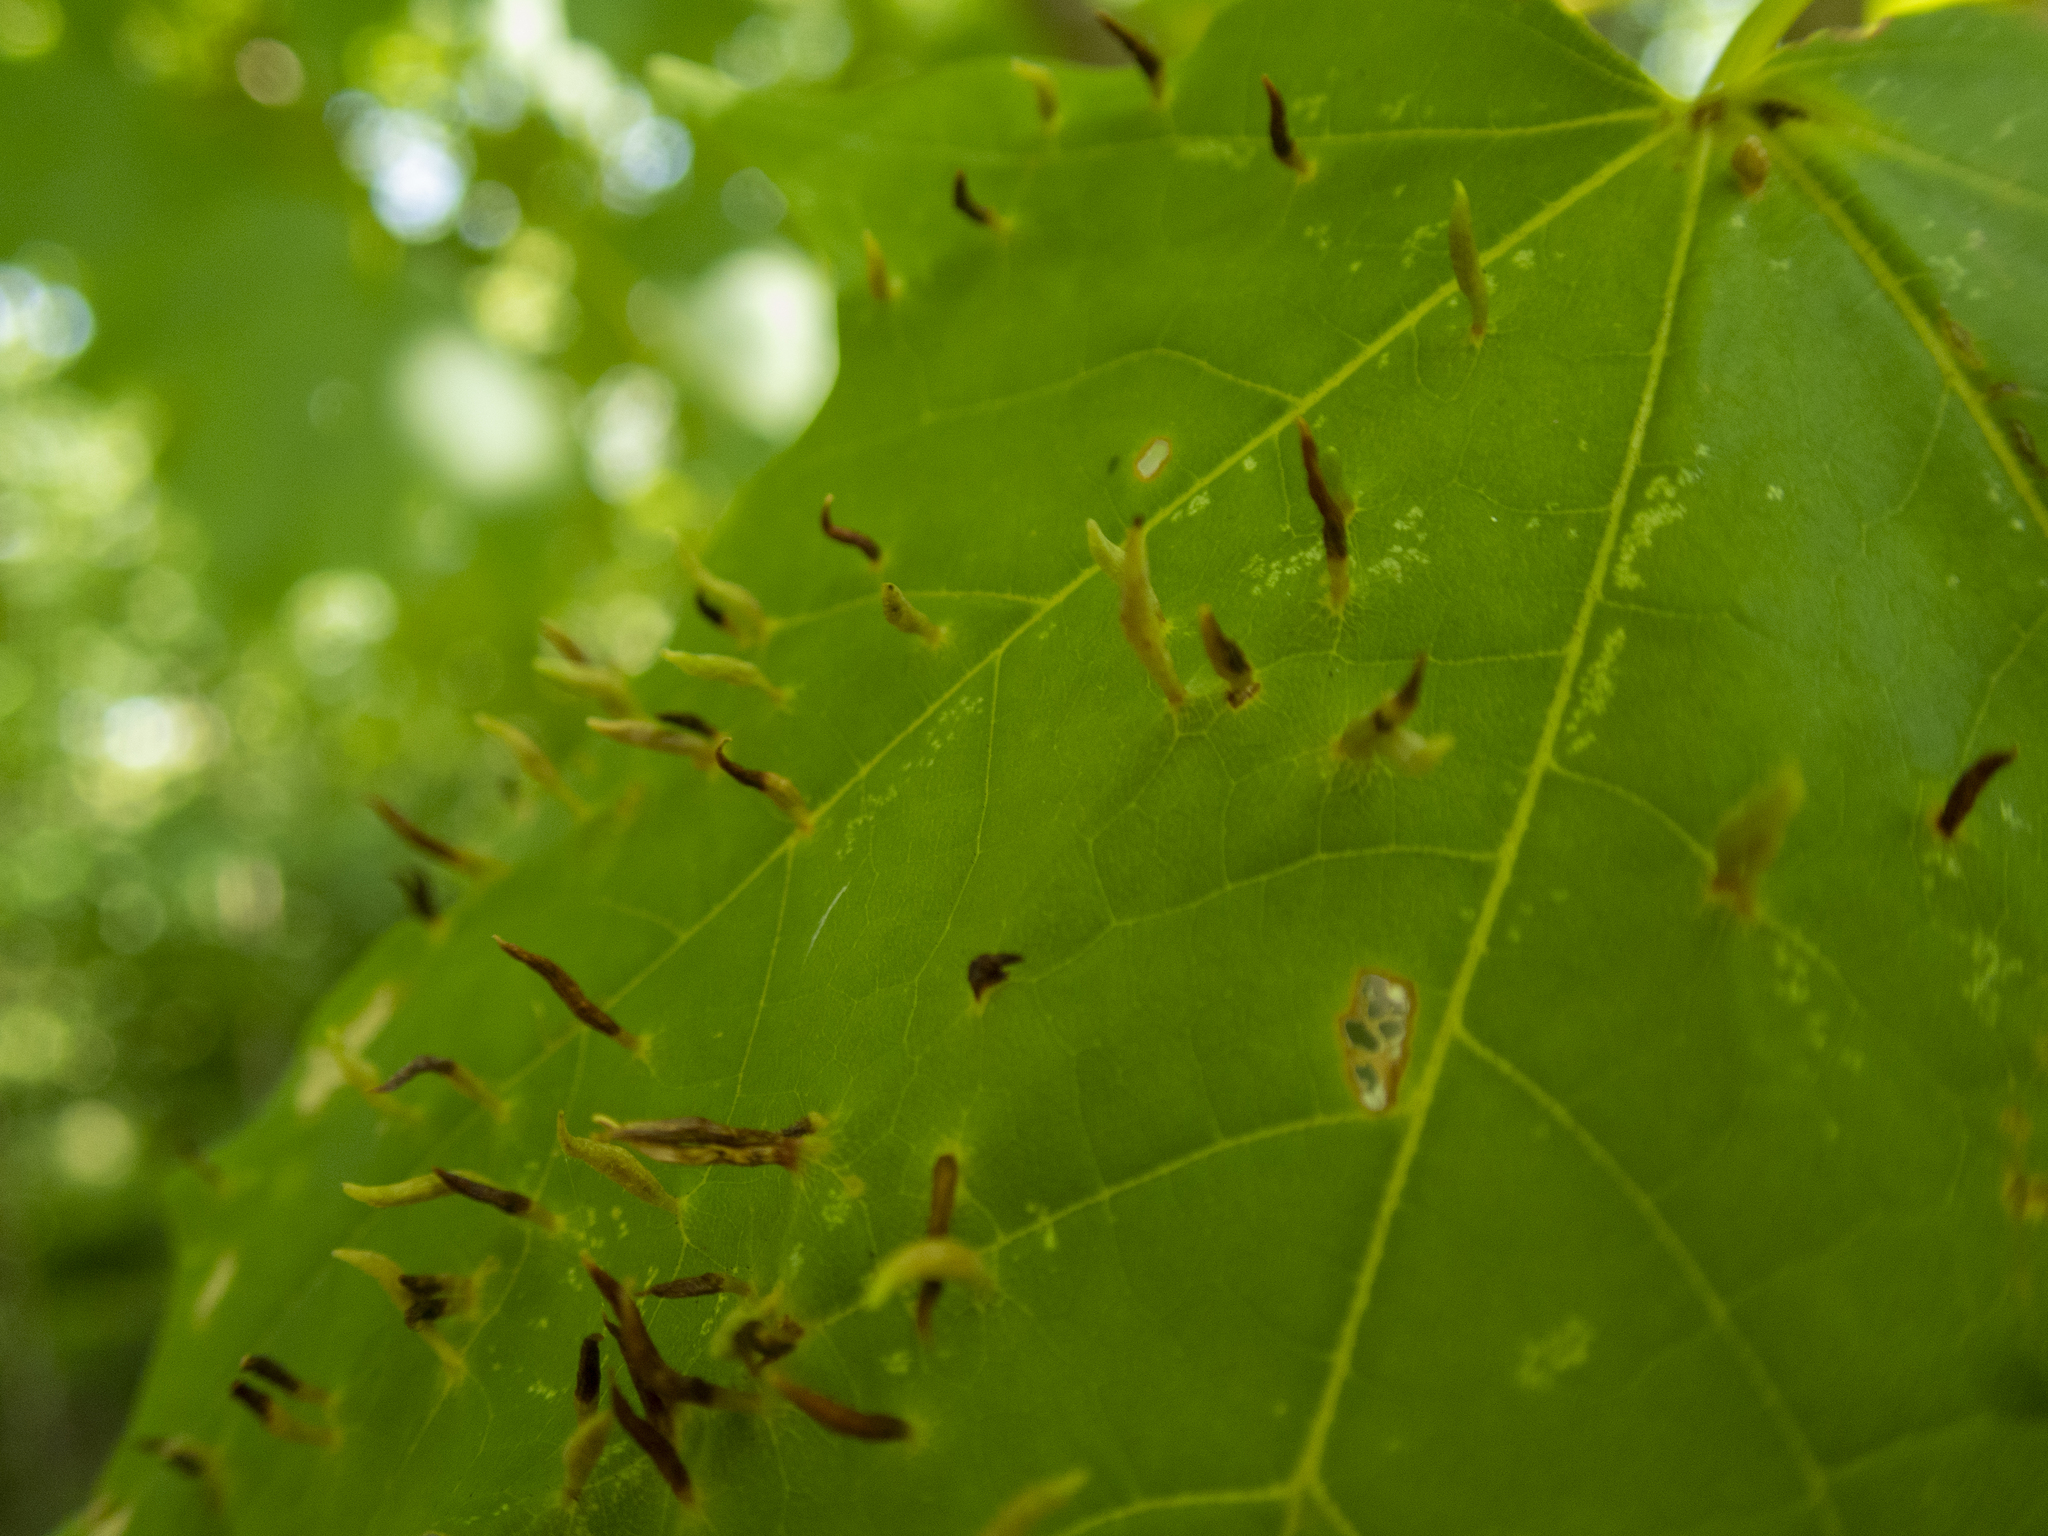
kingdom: Animalia
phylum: Arthropoda
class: Arachnida
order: Trombidiformes
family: Eriophyidae
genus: Vasates
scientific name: Vasates aceriscrumena
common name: Maple spindle gall mite
